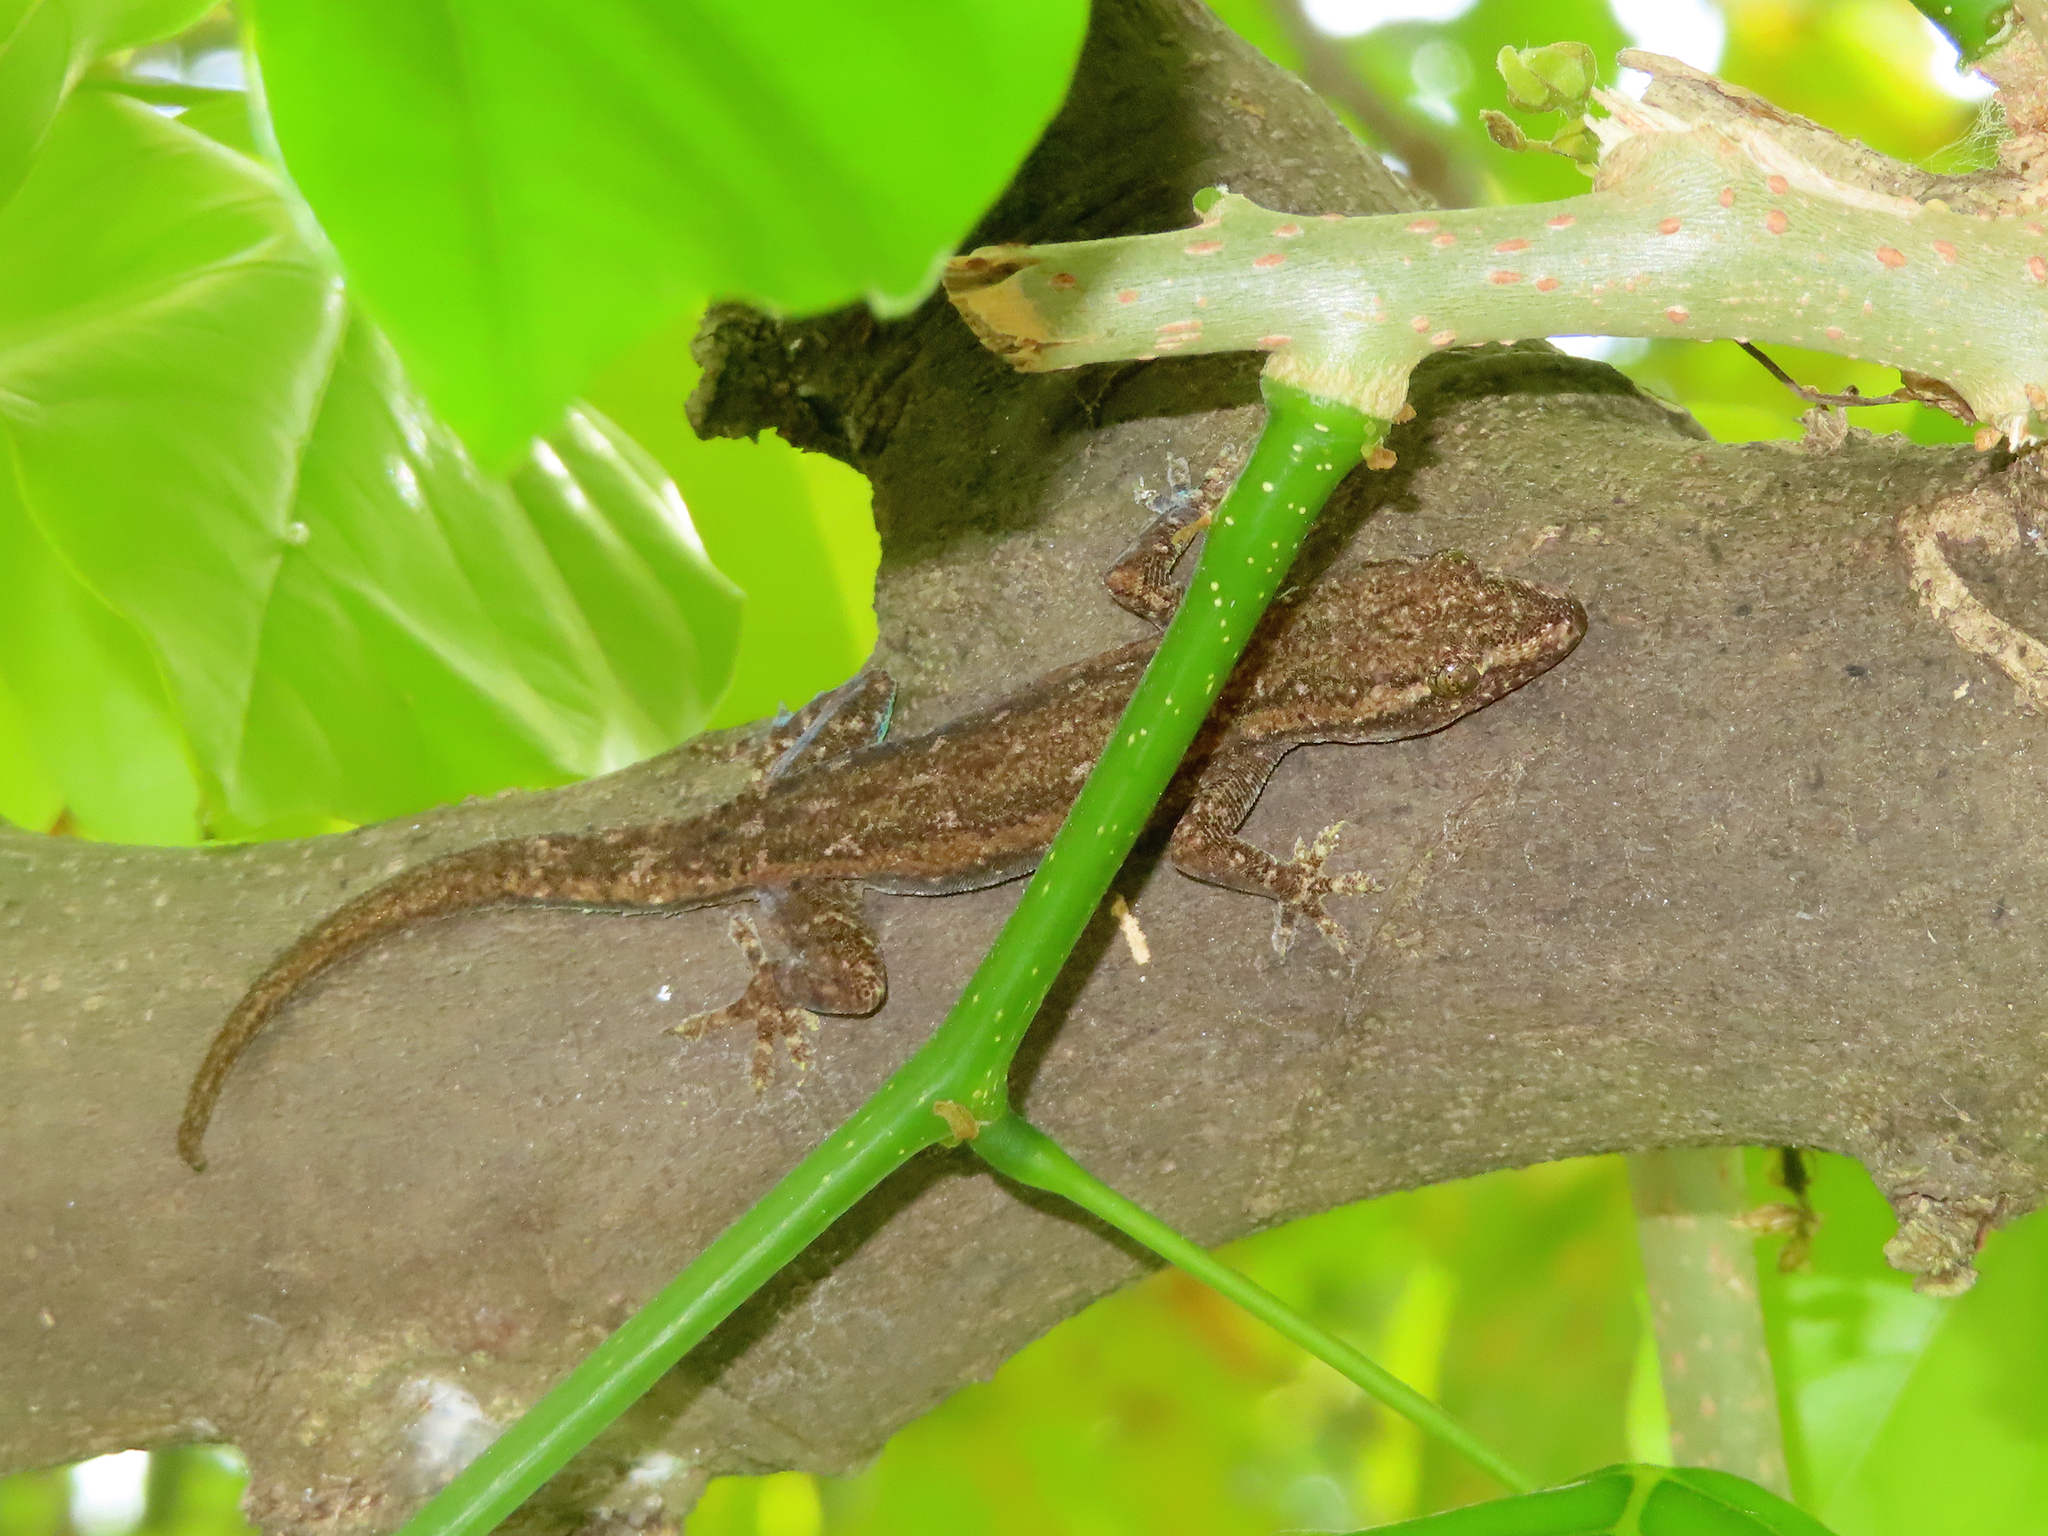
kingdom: Animalia
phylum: Chordata
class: Squamata
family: Gekkonidae
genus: Hemidactylus
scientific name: Hemidactylus frenatus
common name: Common house gecko
